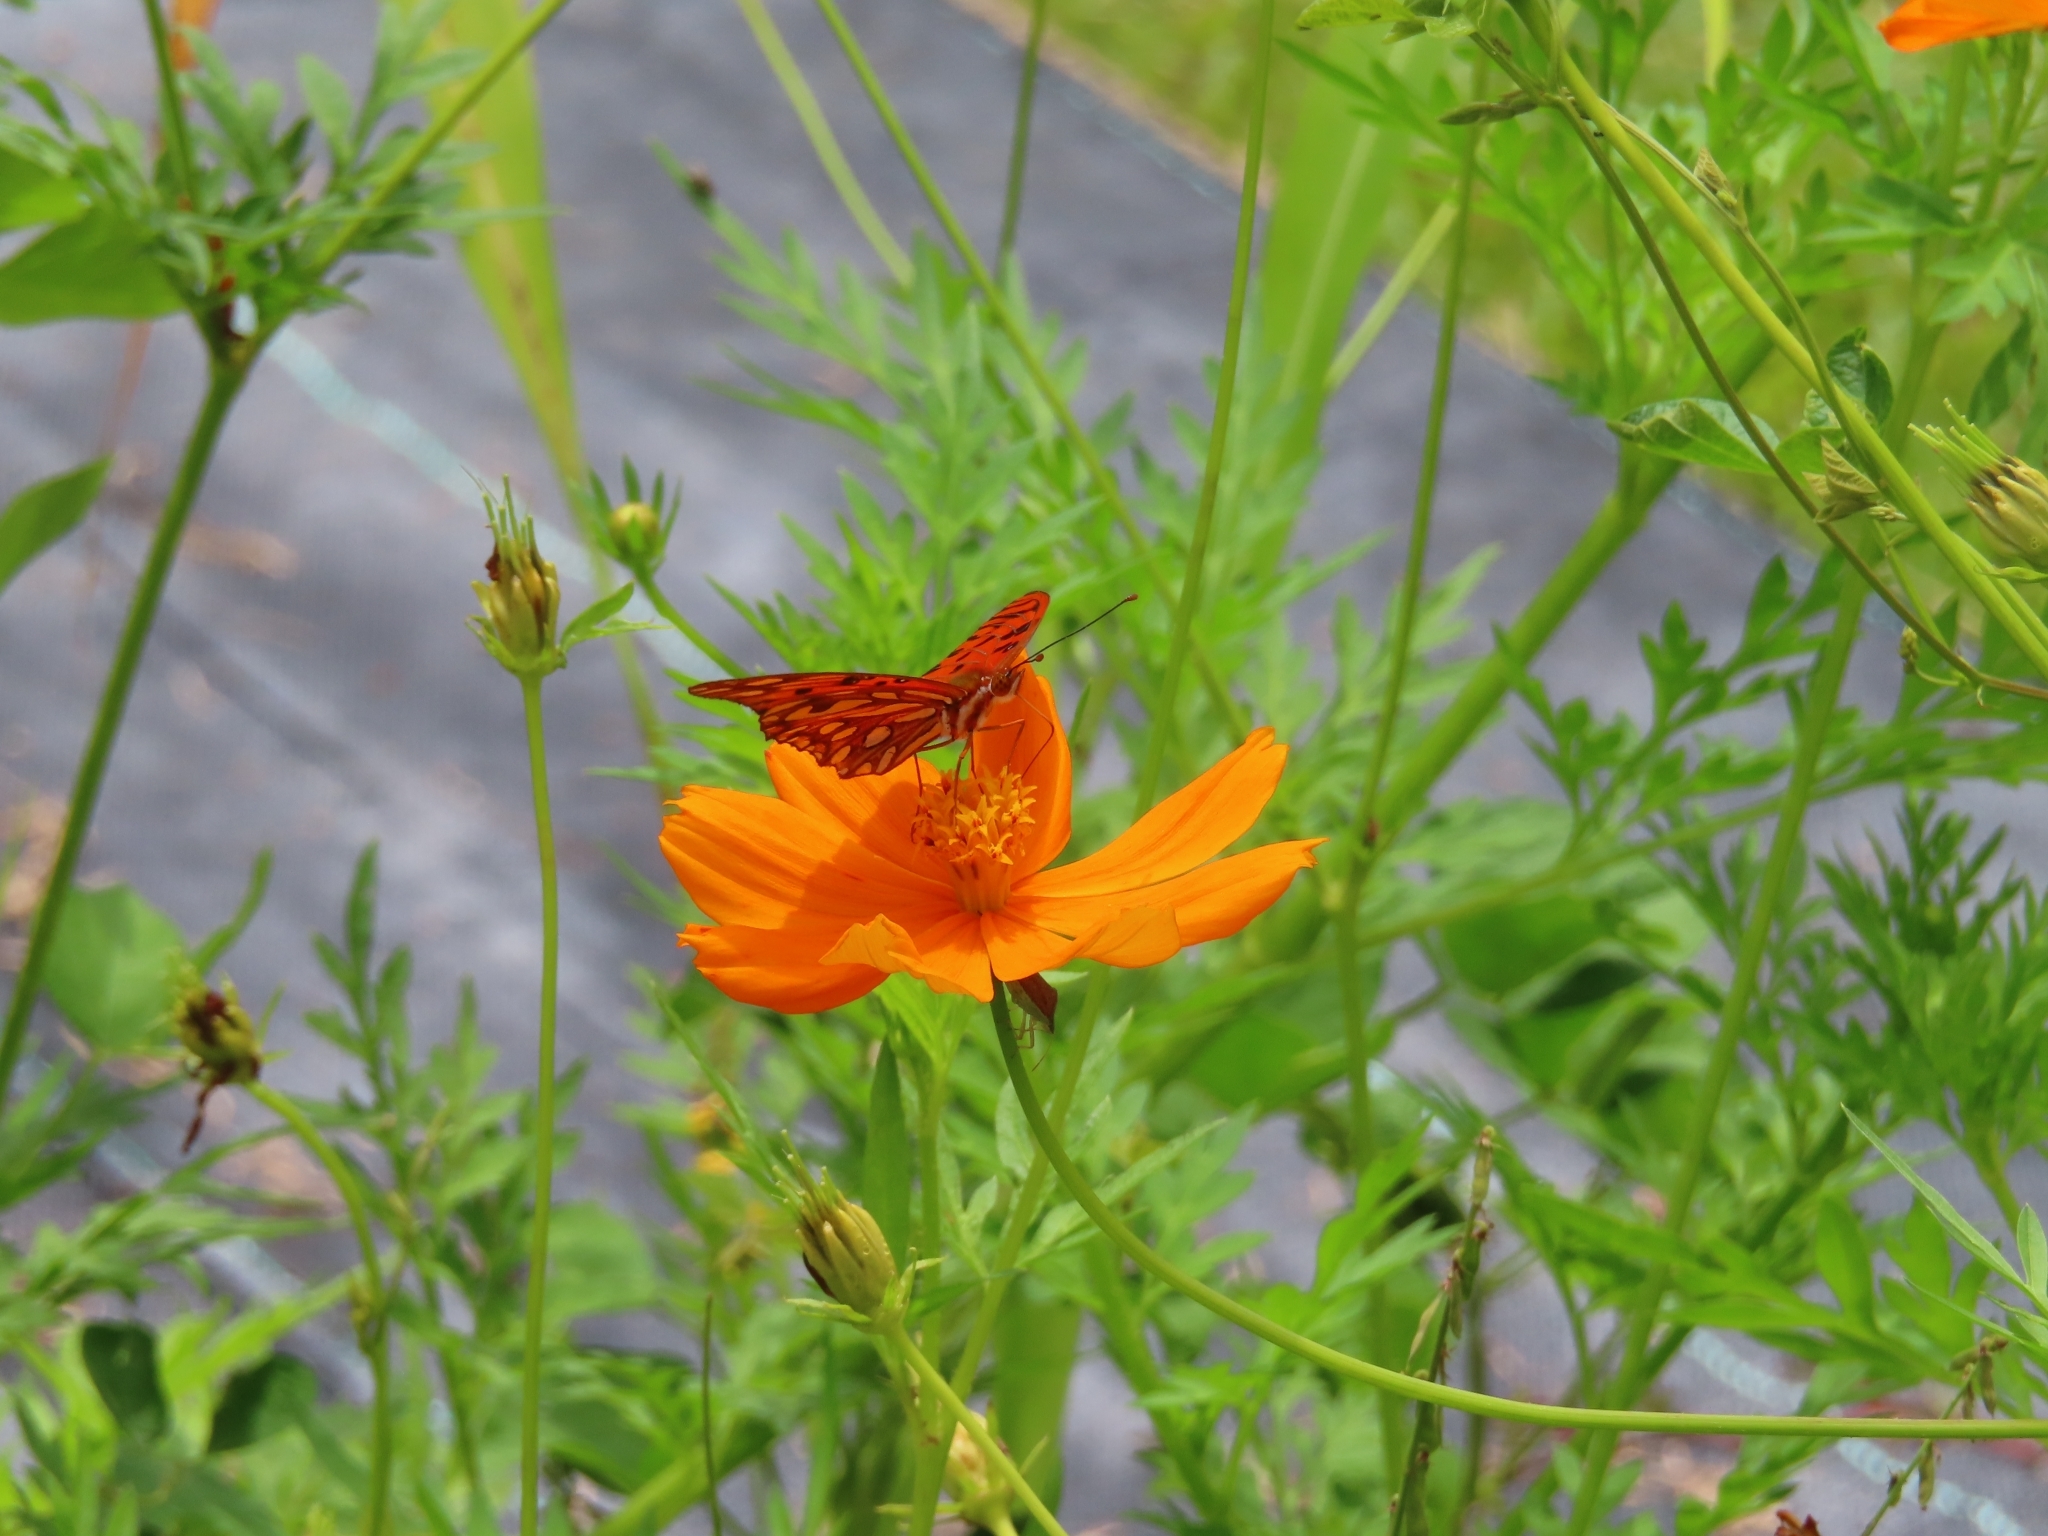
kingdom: Animalia
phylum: Arthropoda
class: Insecta
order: Lepidoptera
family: Nymphalidae
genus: Dione
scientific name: Dione vanillae
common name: Gulf fritillary
